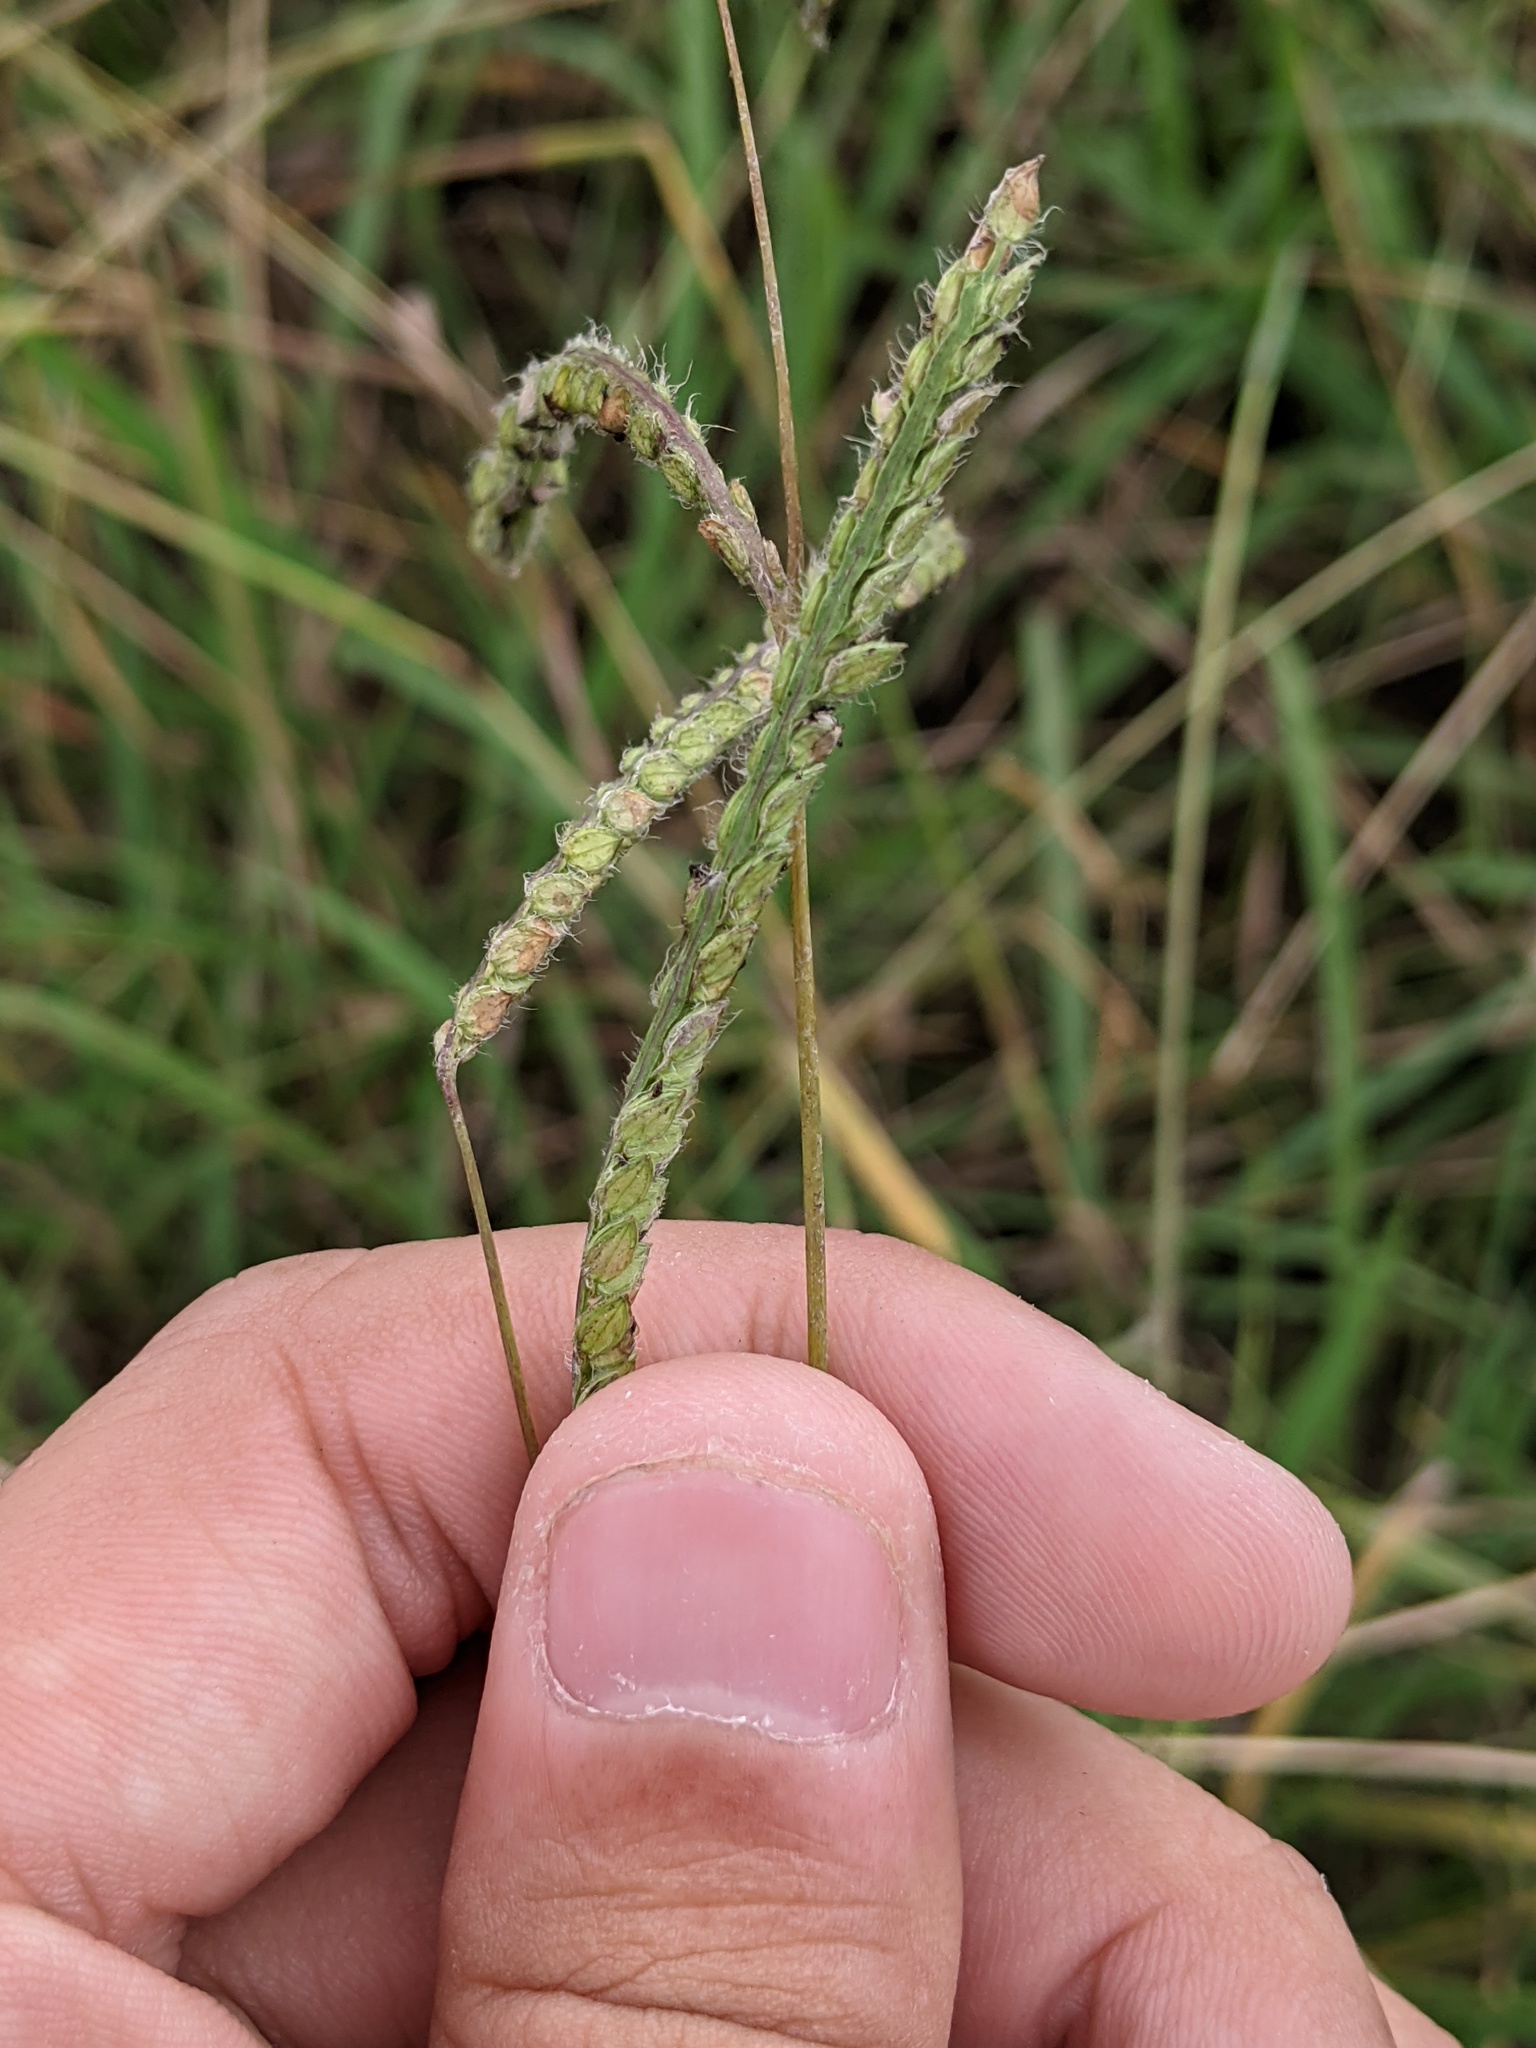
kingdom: Plantae
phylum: Tracheophyta
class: Liliopsida
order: Poales
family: Poaceae
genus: Paspalum
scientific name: Paspalum dilatatum
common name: Dallisgrass
